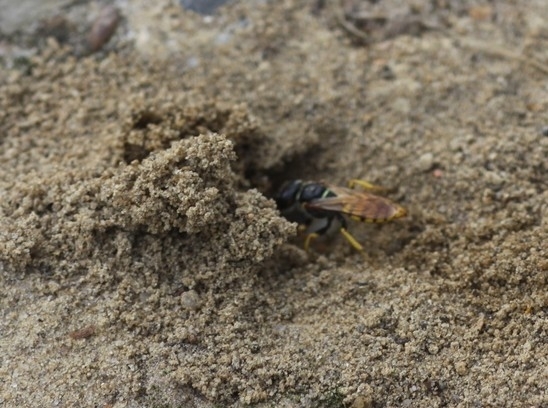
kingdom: Animalia
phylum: Arthropoda
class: Insecta
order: Hymenoptera
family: Crabronidae
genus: Philanthus
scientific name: Philanthus triangulum
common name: Bee wolf
